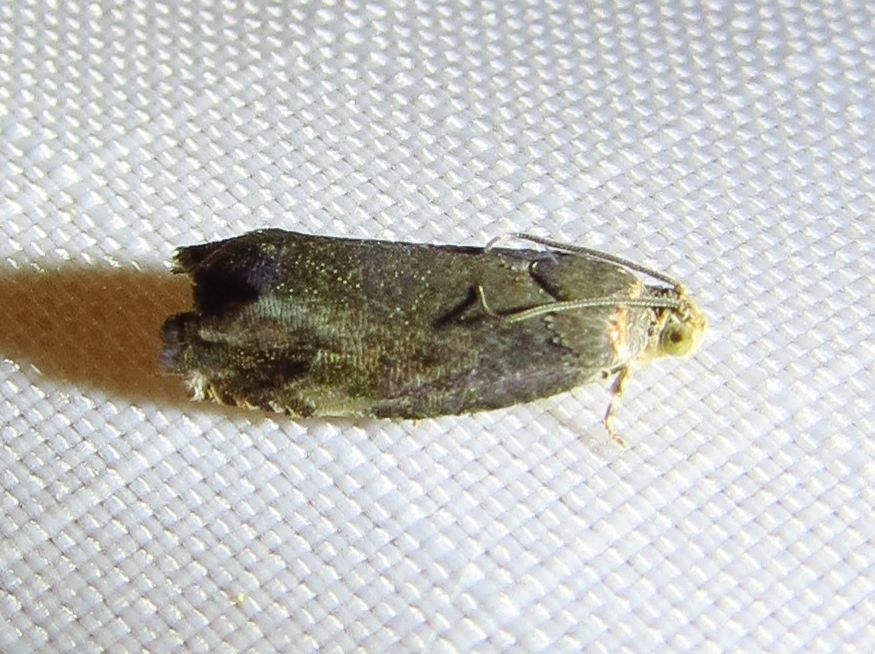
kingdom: Animalia
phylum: Arthropoda
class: Insecta
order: Lepidoptera
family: Tortricidae
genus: Cydia
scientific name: Cydia caryana
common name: Hickory shuckworm moth
